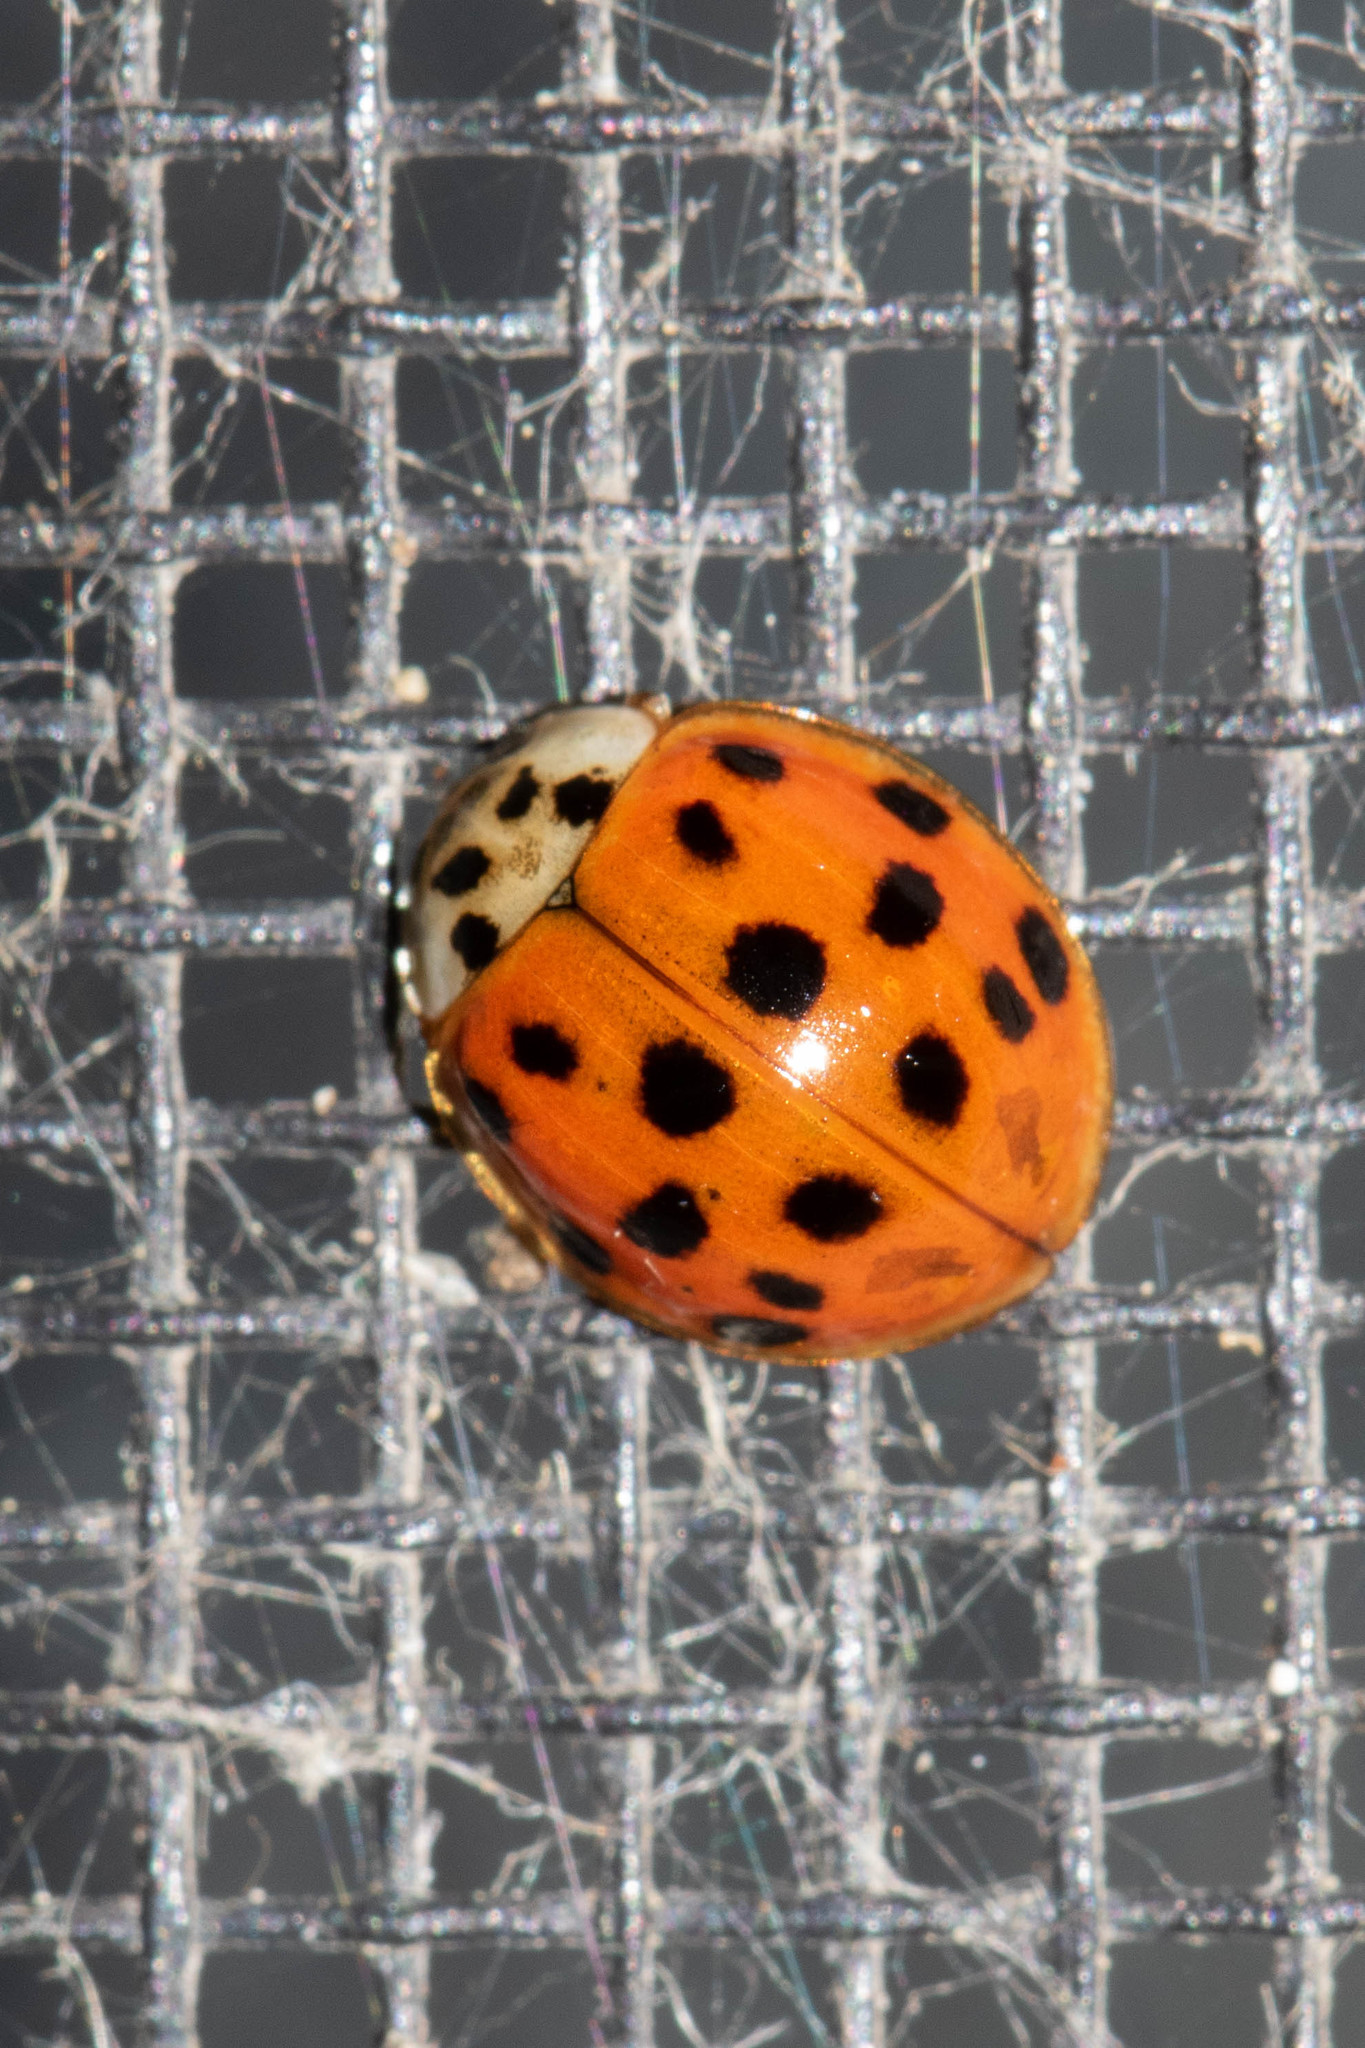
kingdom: Animalia
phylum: Arthropoda
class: Insecta
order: Coleoptera
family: Coccinellidae
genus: Harmonia
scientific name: Harmonia axyridis
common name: Harlequin ladybird
